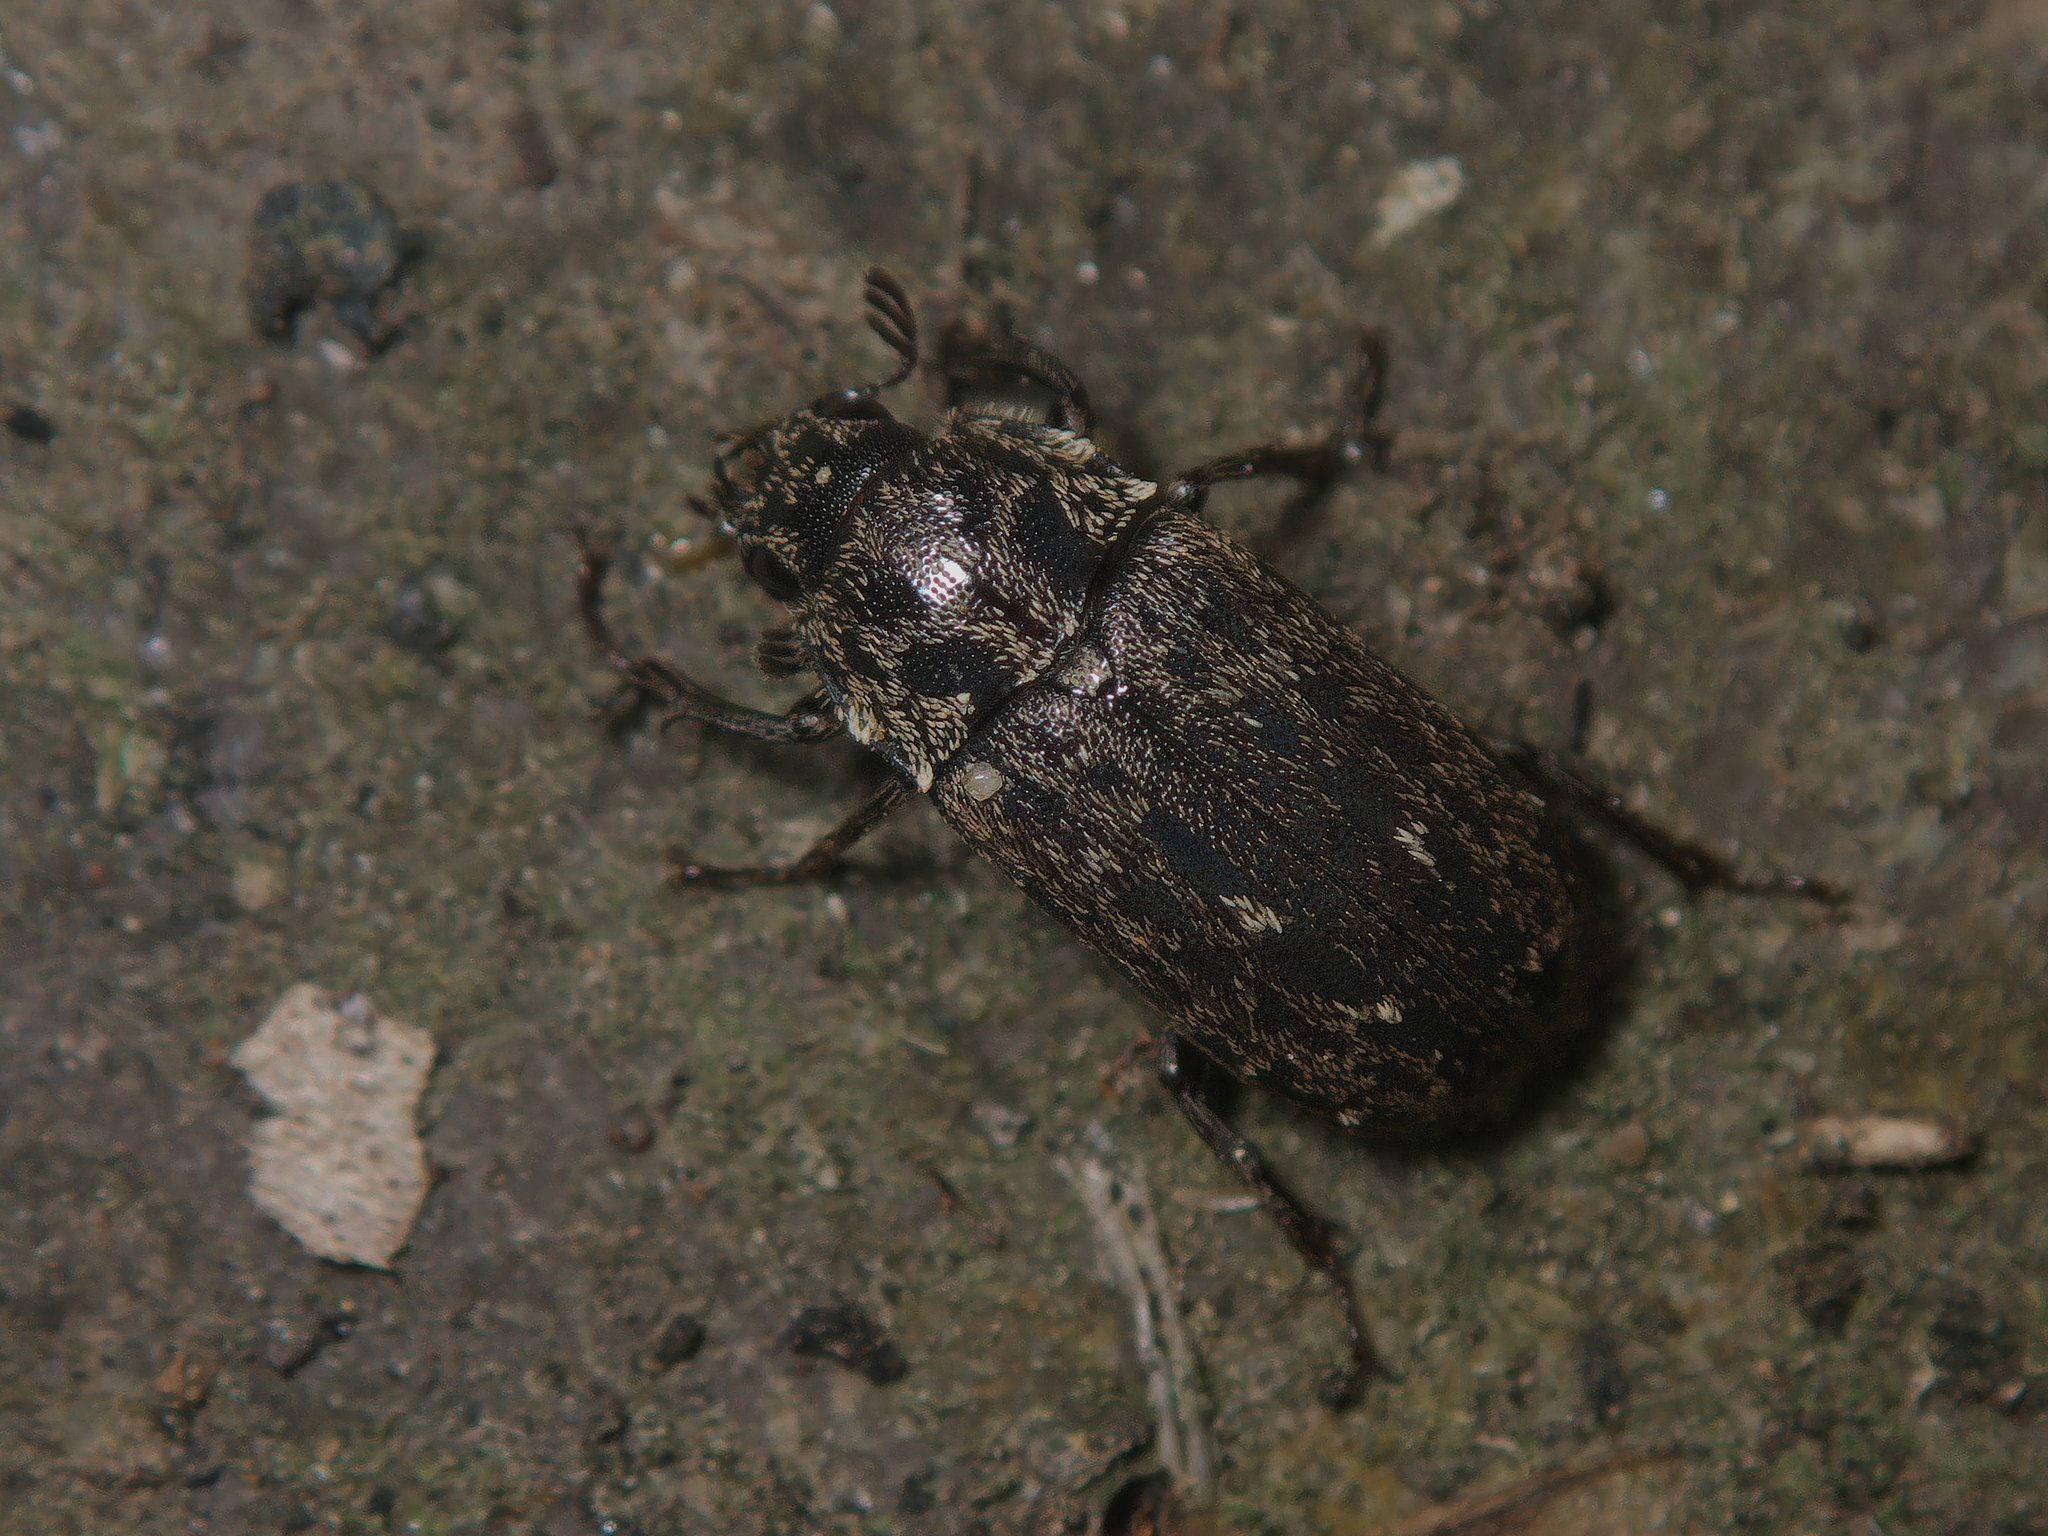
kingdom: Animalia
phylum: Arthropoda
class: Insecta
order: Coleoptera
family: Lucanidae
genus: Mitophyllus
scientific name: Mitophyllus arcuatus
